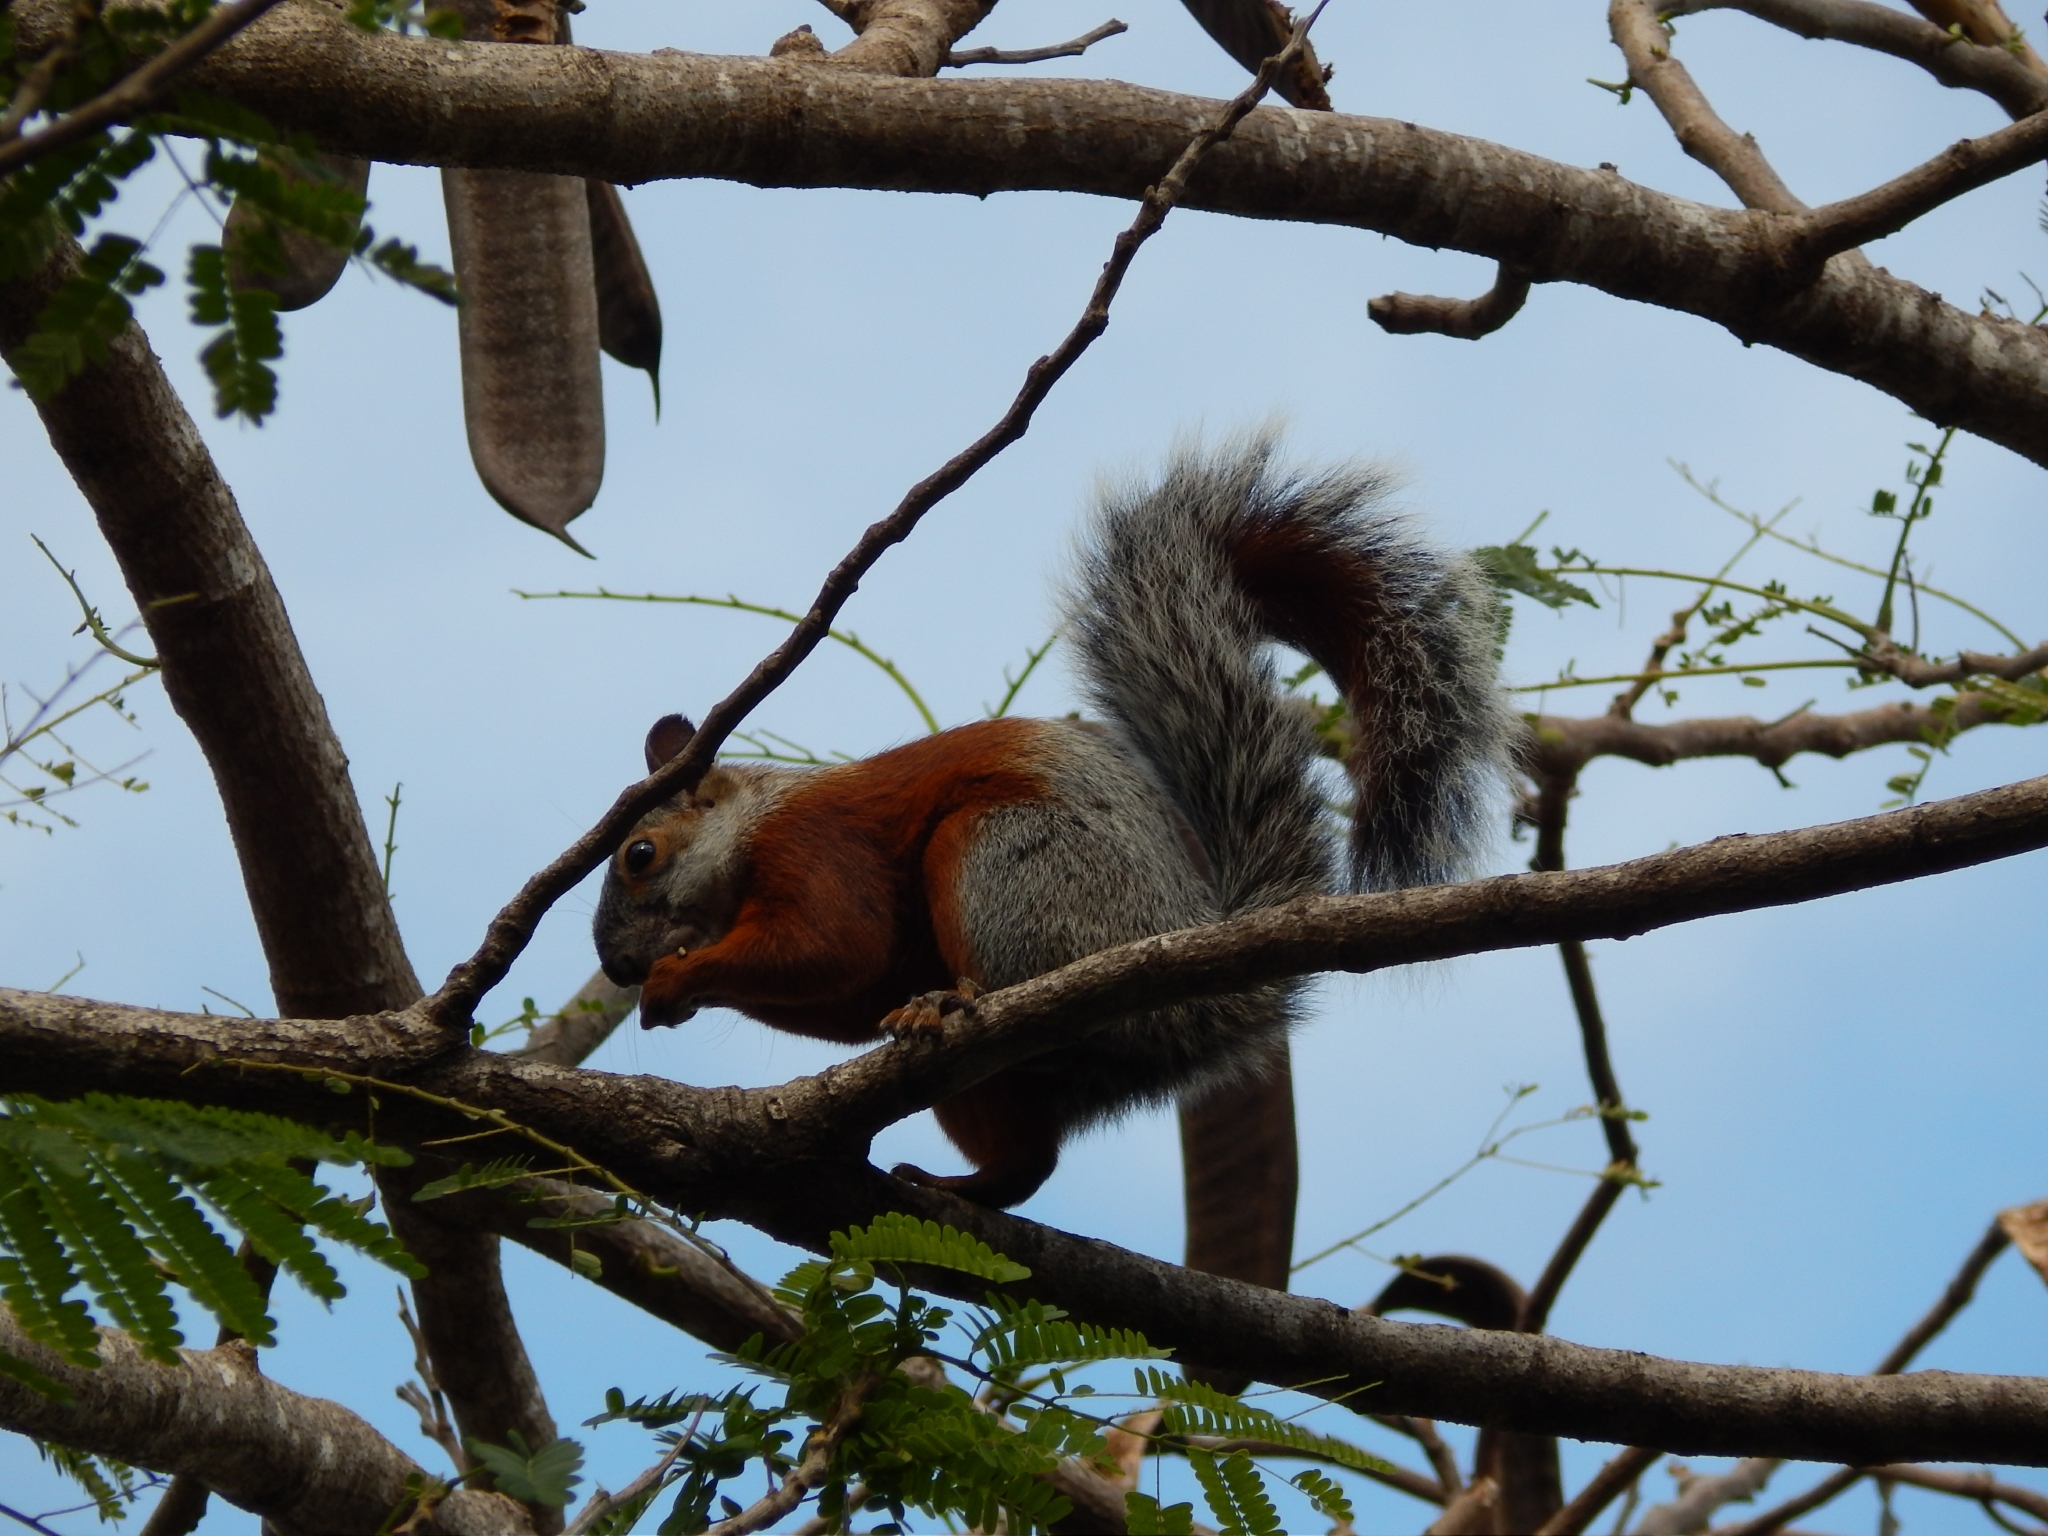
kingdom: Animalia
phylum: Chordata
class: Mammalia
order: Rodentia
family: Sciuridae
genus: Sciurus
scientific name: Sciurus aureogaster
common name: Red-bellied squirrel
